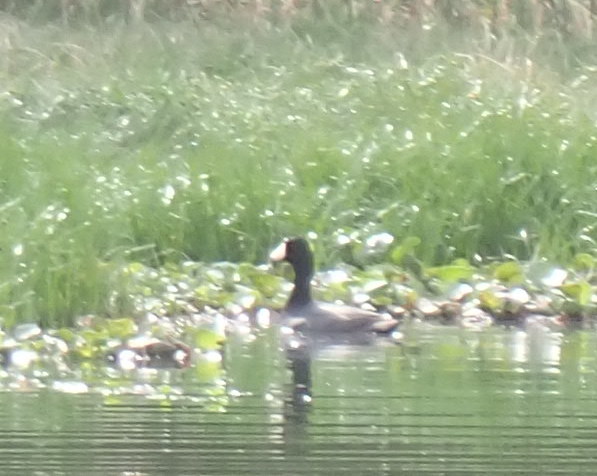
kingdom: Animalia
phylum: Chordata
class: Aves
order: Gruiformes
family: Rallidae
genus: Fulica
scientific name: Fulica americana
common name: American coot
